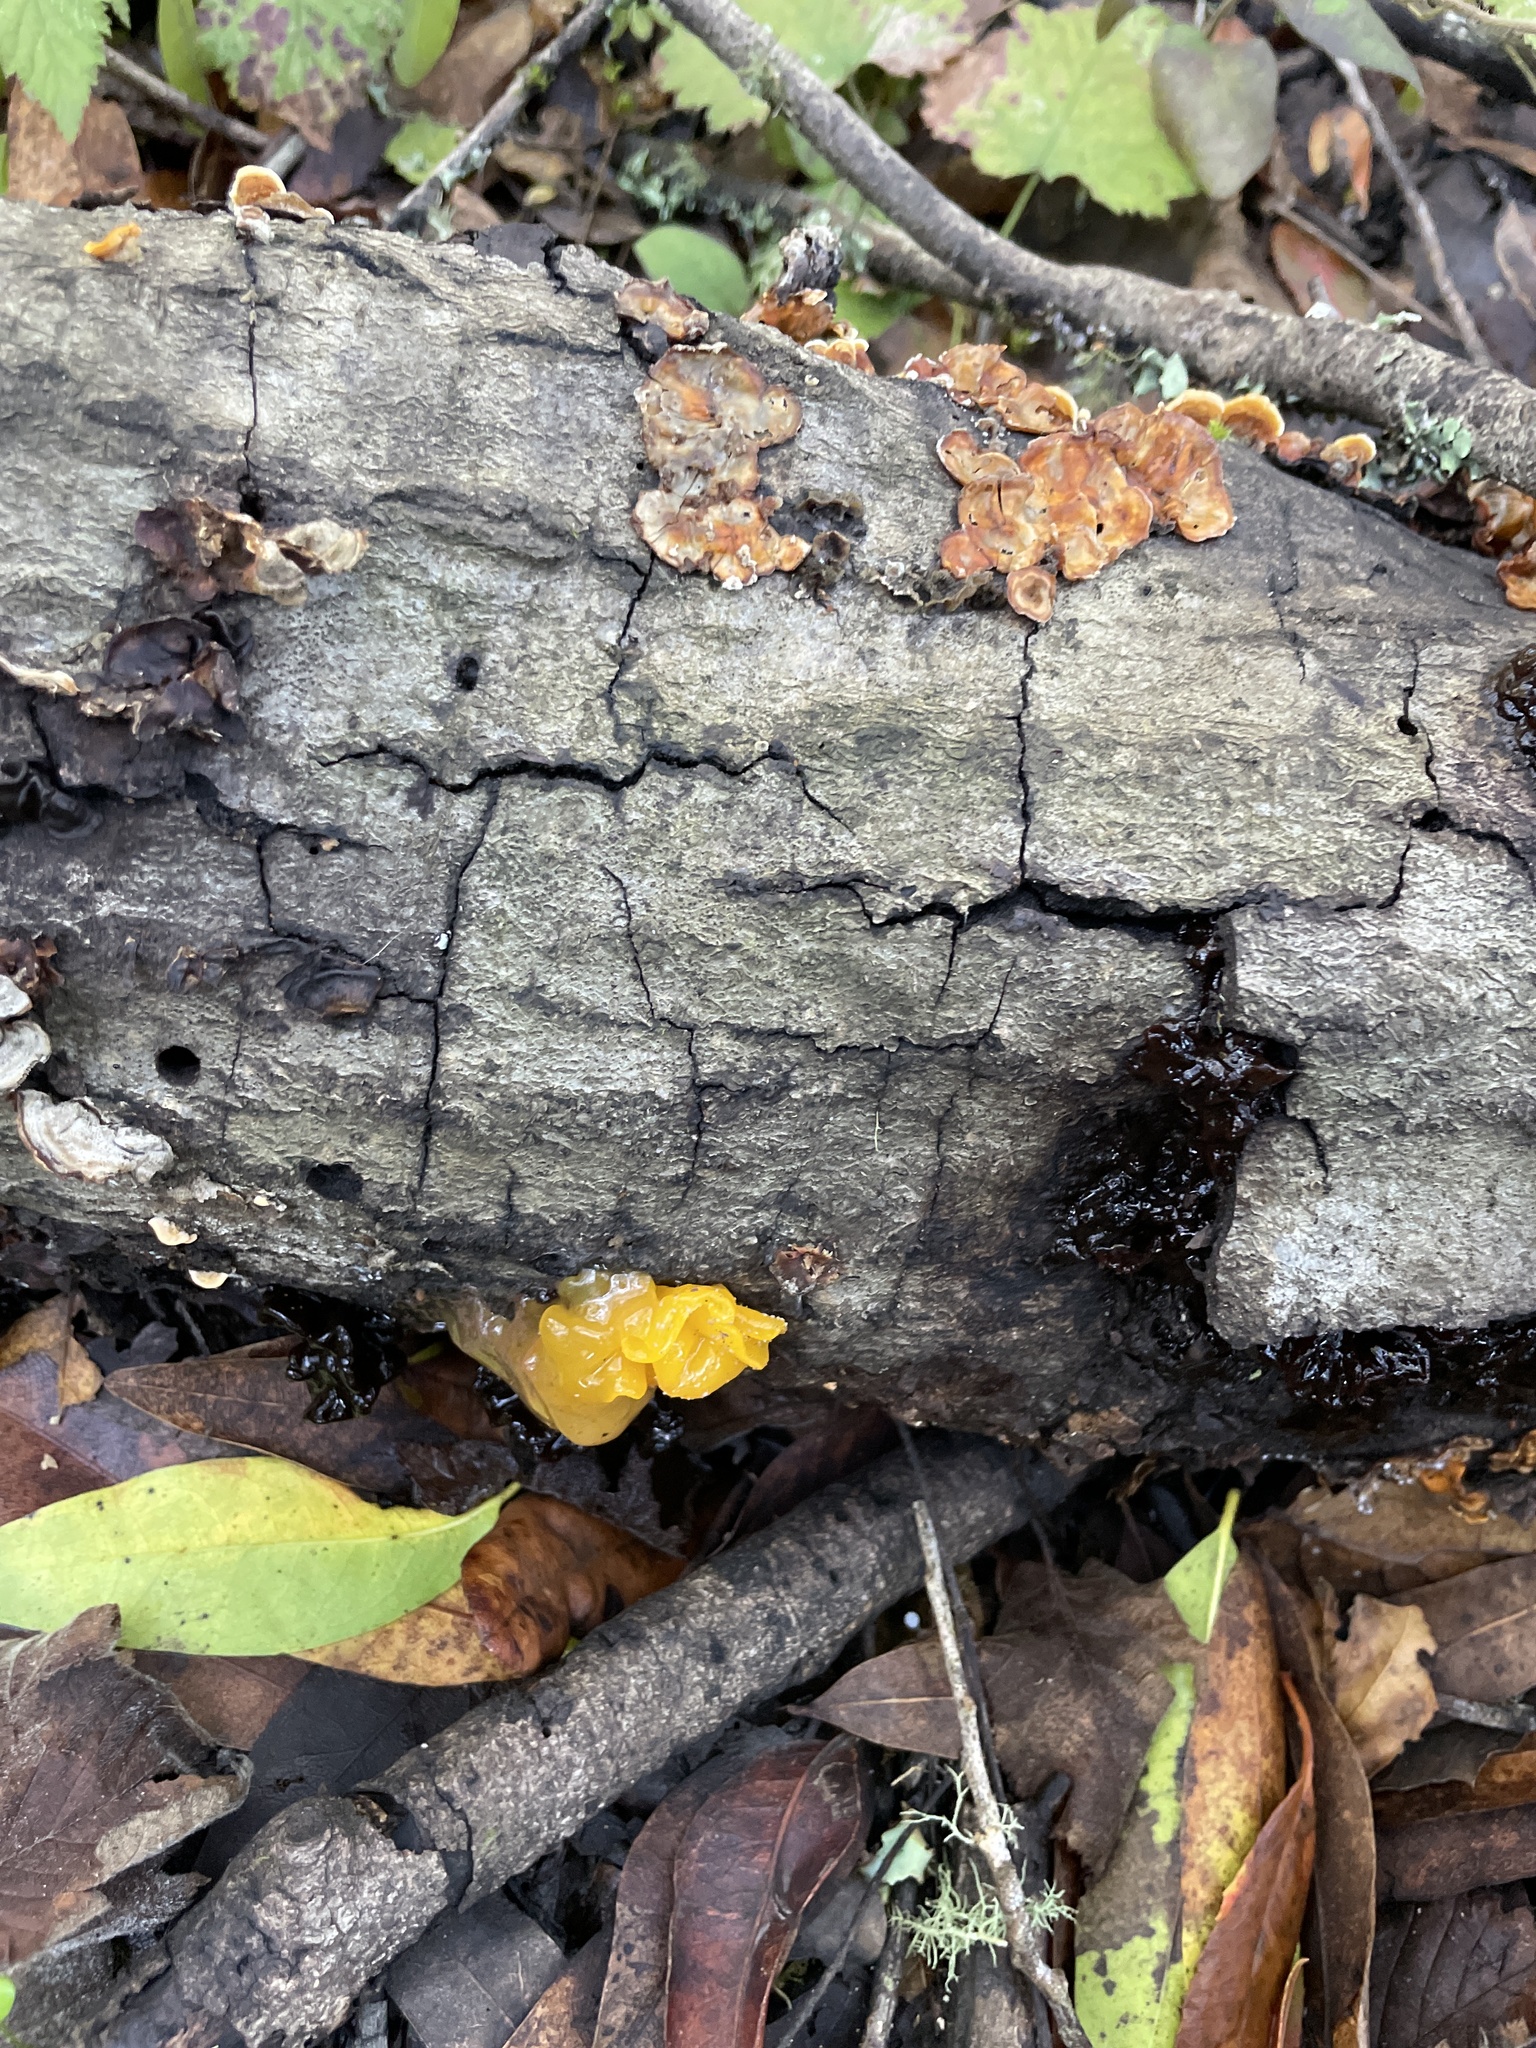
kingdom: Fungi
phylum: Basidiomycota
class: Tremellomycetes
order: Tremellales
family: Naemateliaceae
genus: Naematelia
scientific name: Naematelia aurantia
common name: Golden ear
